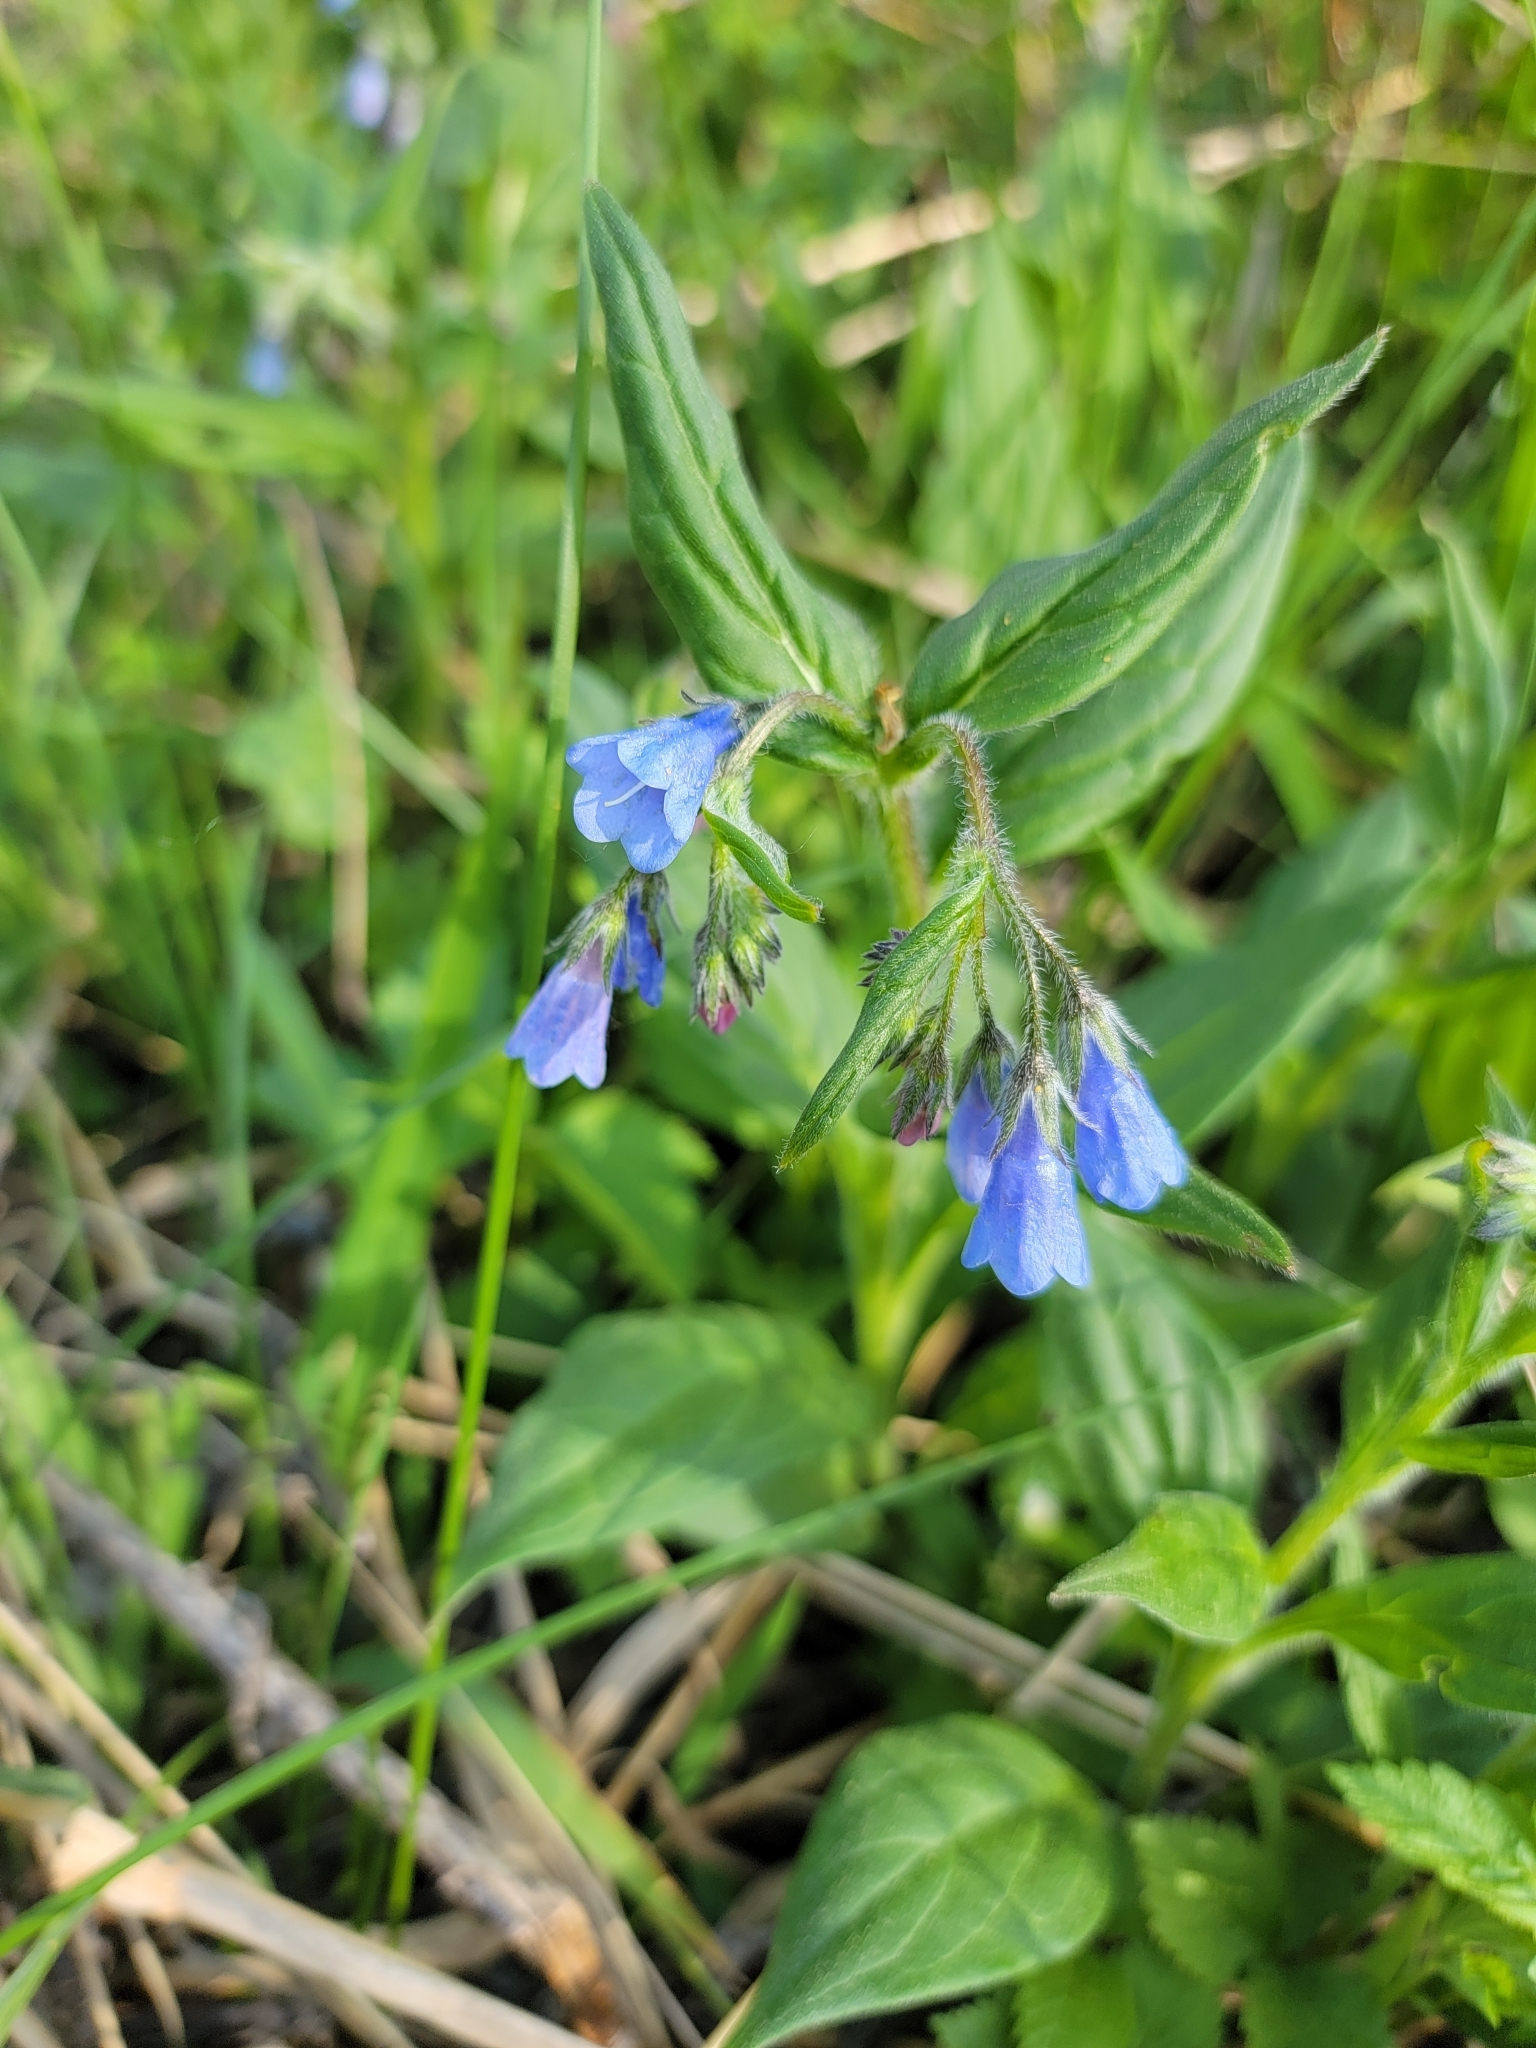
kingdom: Plantae
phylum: Tracheophyta
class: Magnoliopsida
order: Boraginales
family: Boraginaceae
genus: Mertensia
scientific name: Mertensia paniculata
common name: Panicled bluebells
